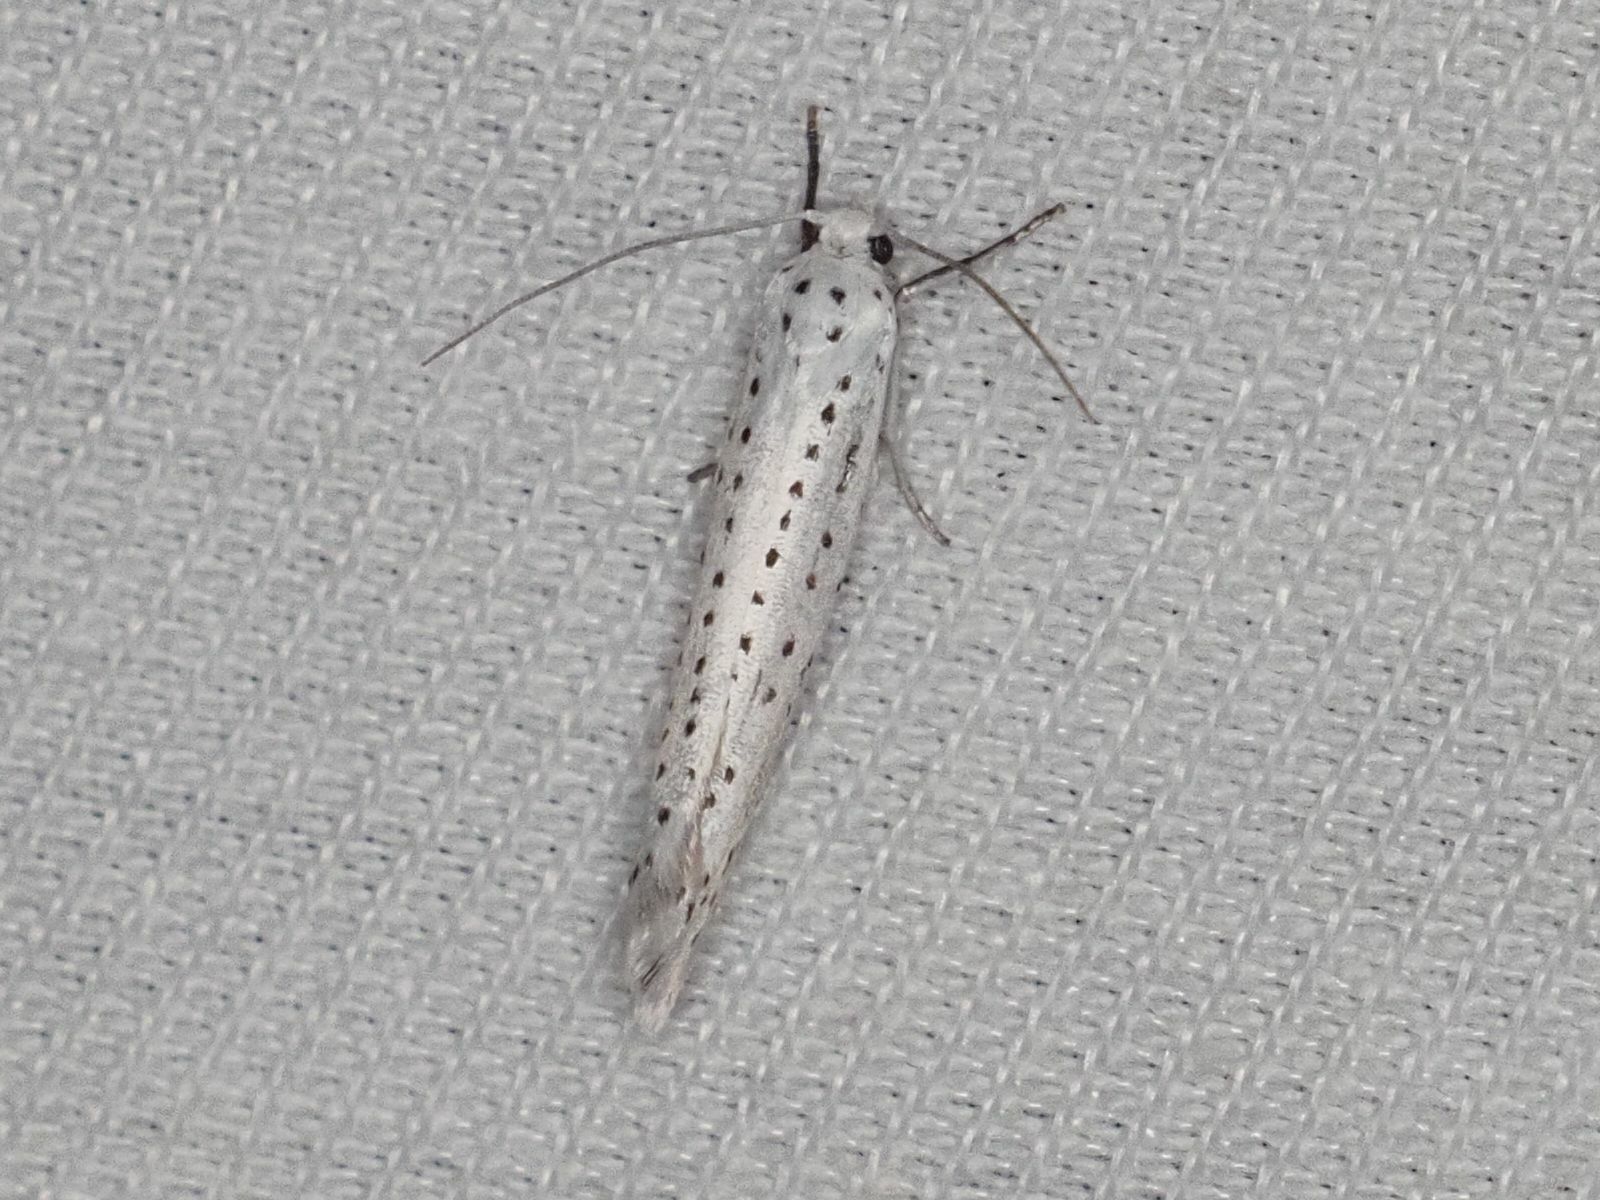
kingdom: Animalia
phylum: Arthropoda
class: Insecta
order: Lepidoptera
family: Yponomeutidae
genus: Yponomeuta
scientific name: Yponomeuta evonymella
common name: Bird-cherry ermine
